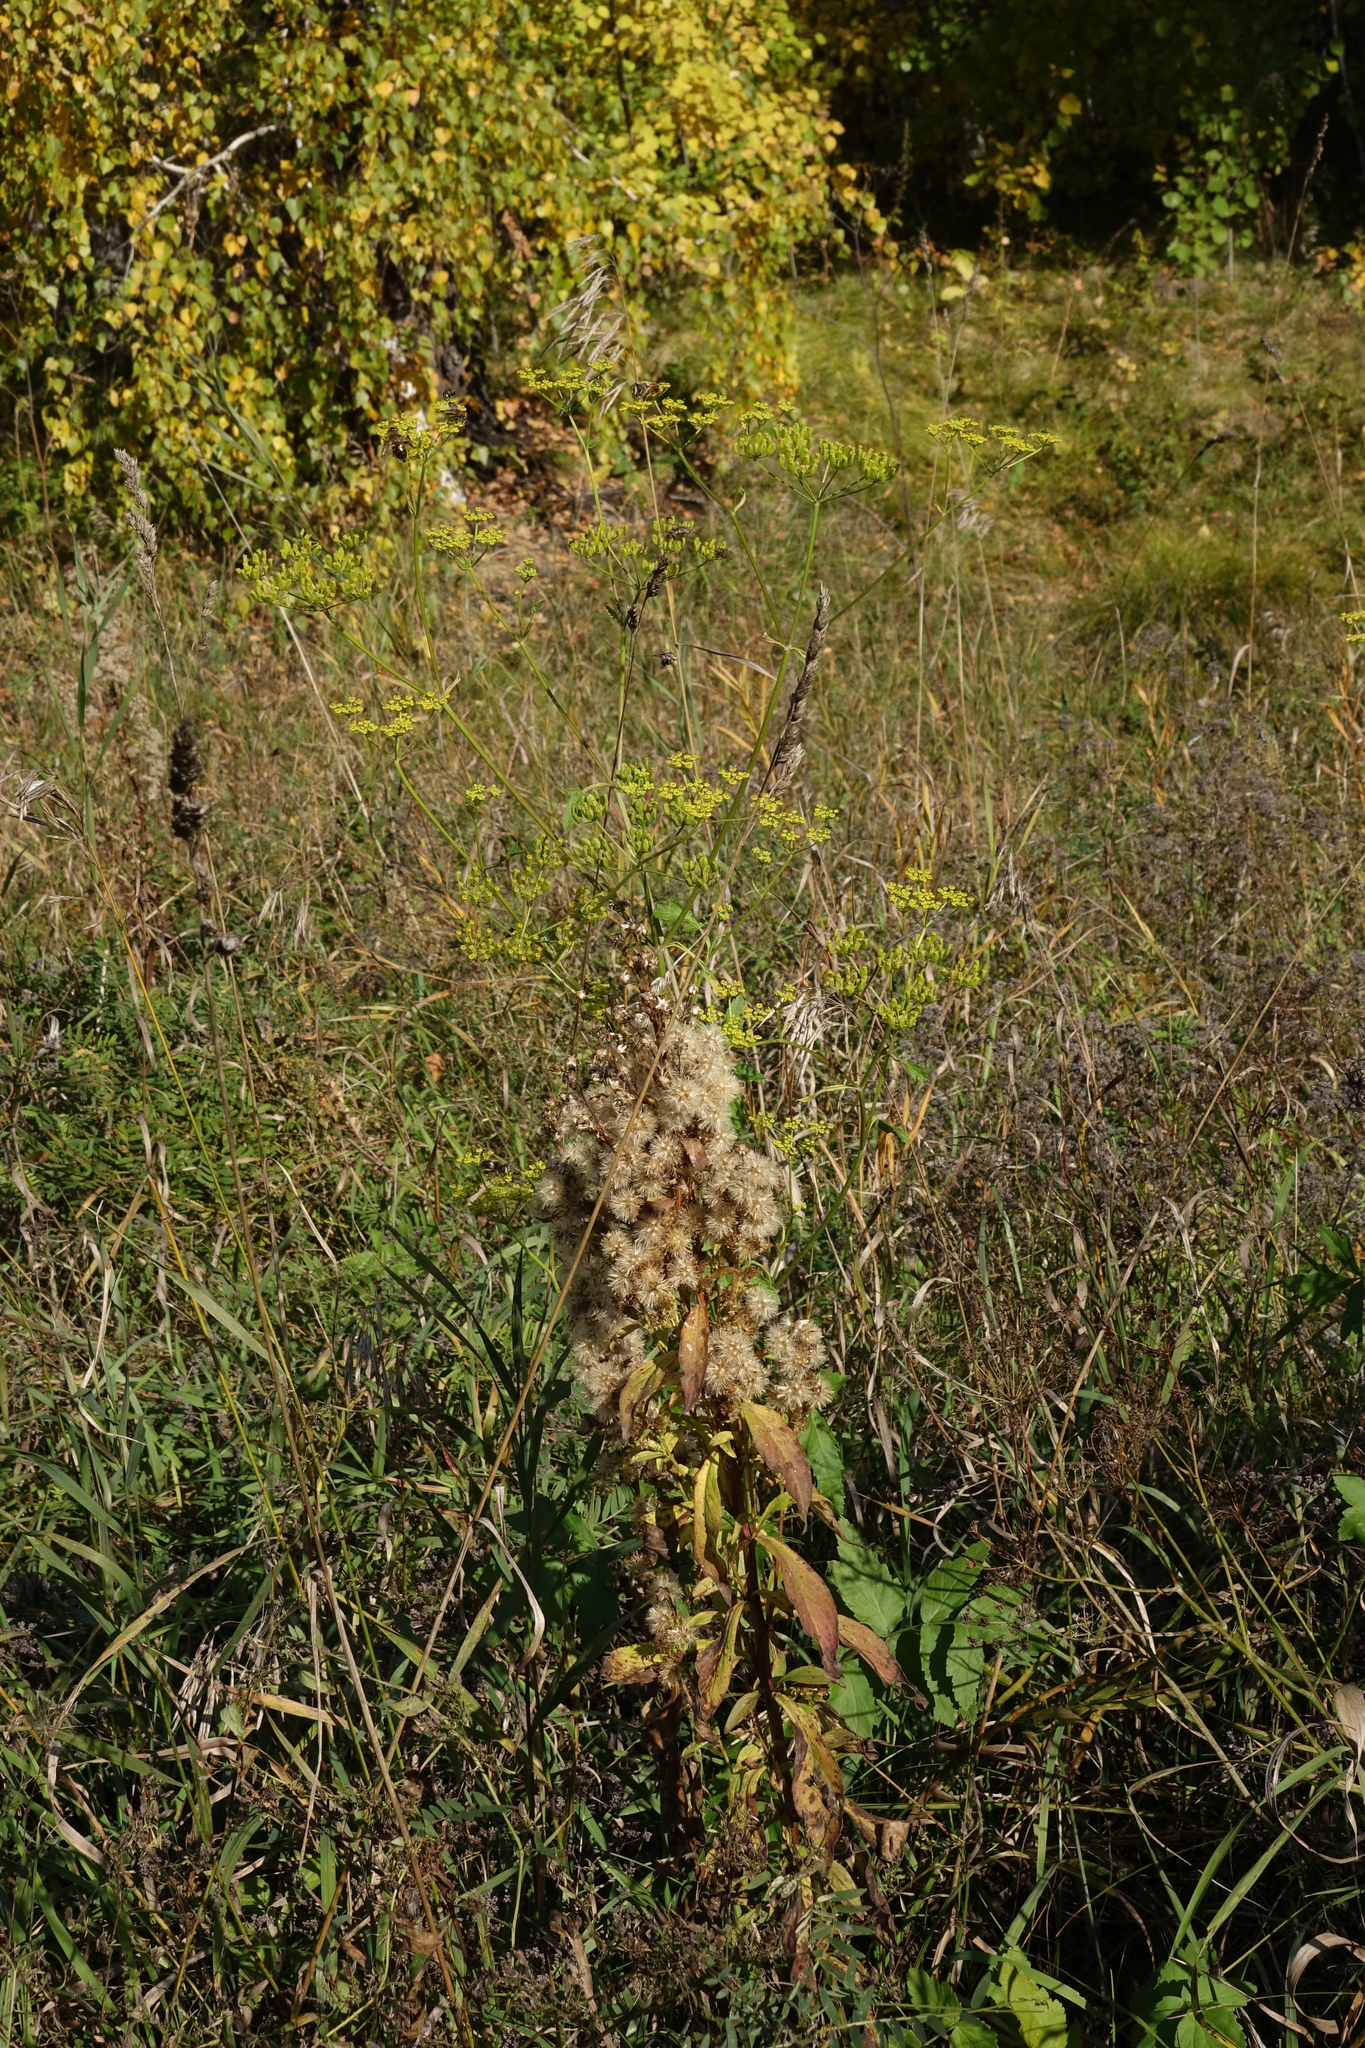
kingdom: Plantae
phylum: Tracheophyta
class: Magnoliopsida
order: Apiales
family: Apiaceae
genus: Pastinaca
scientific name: Pastinaca sativa
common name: Wild parsnip
